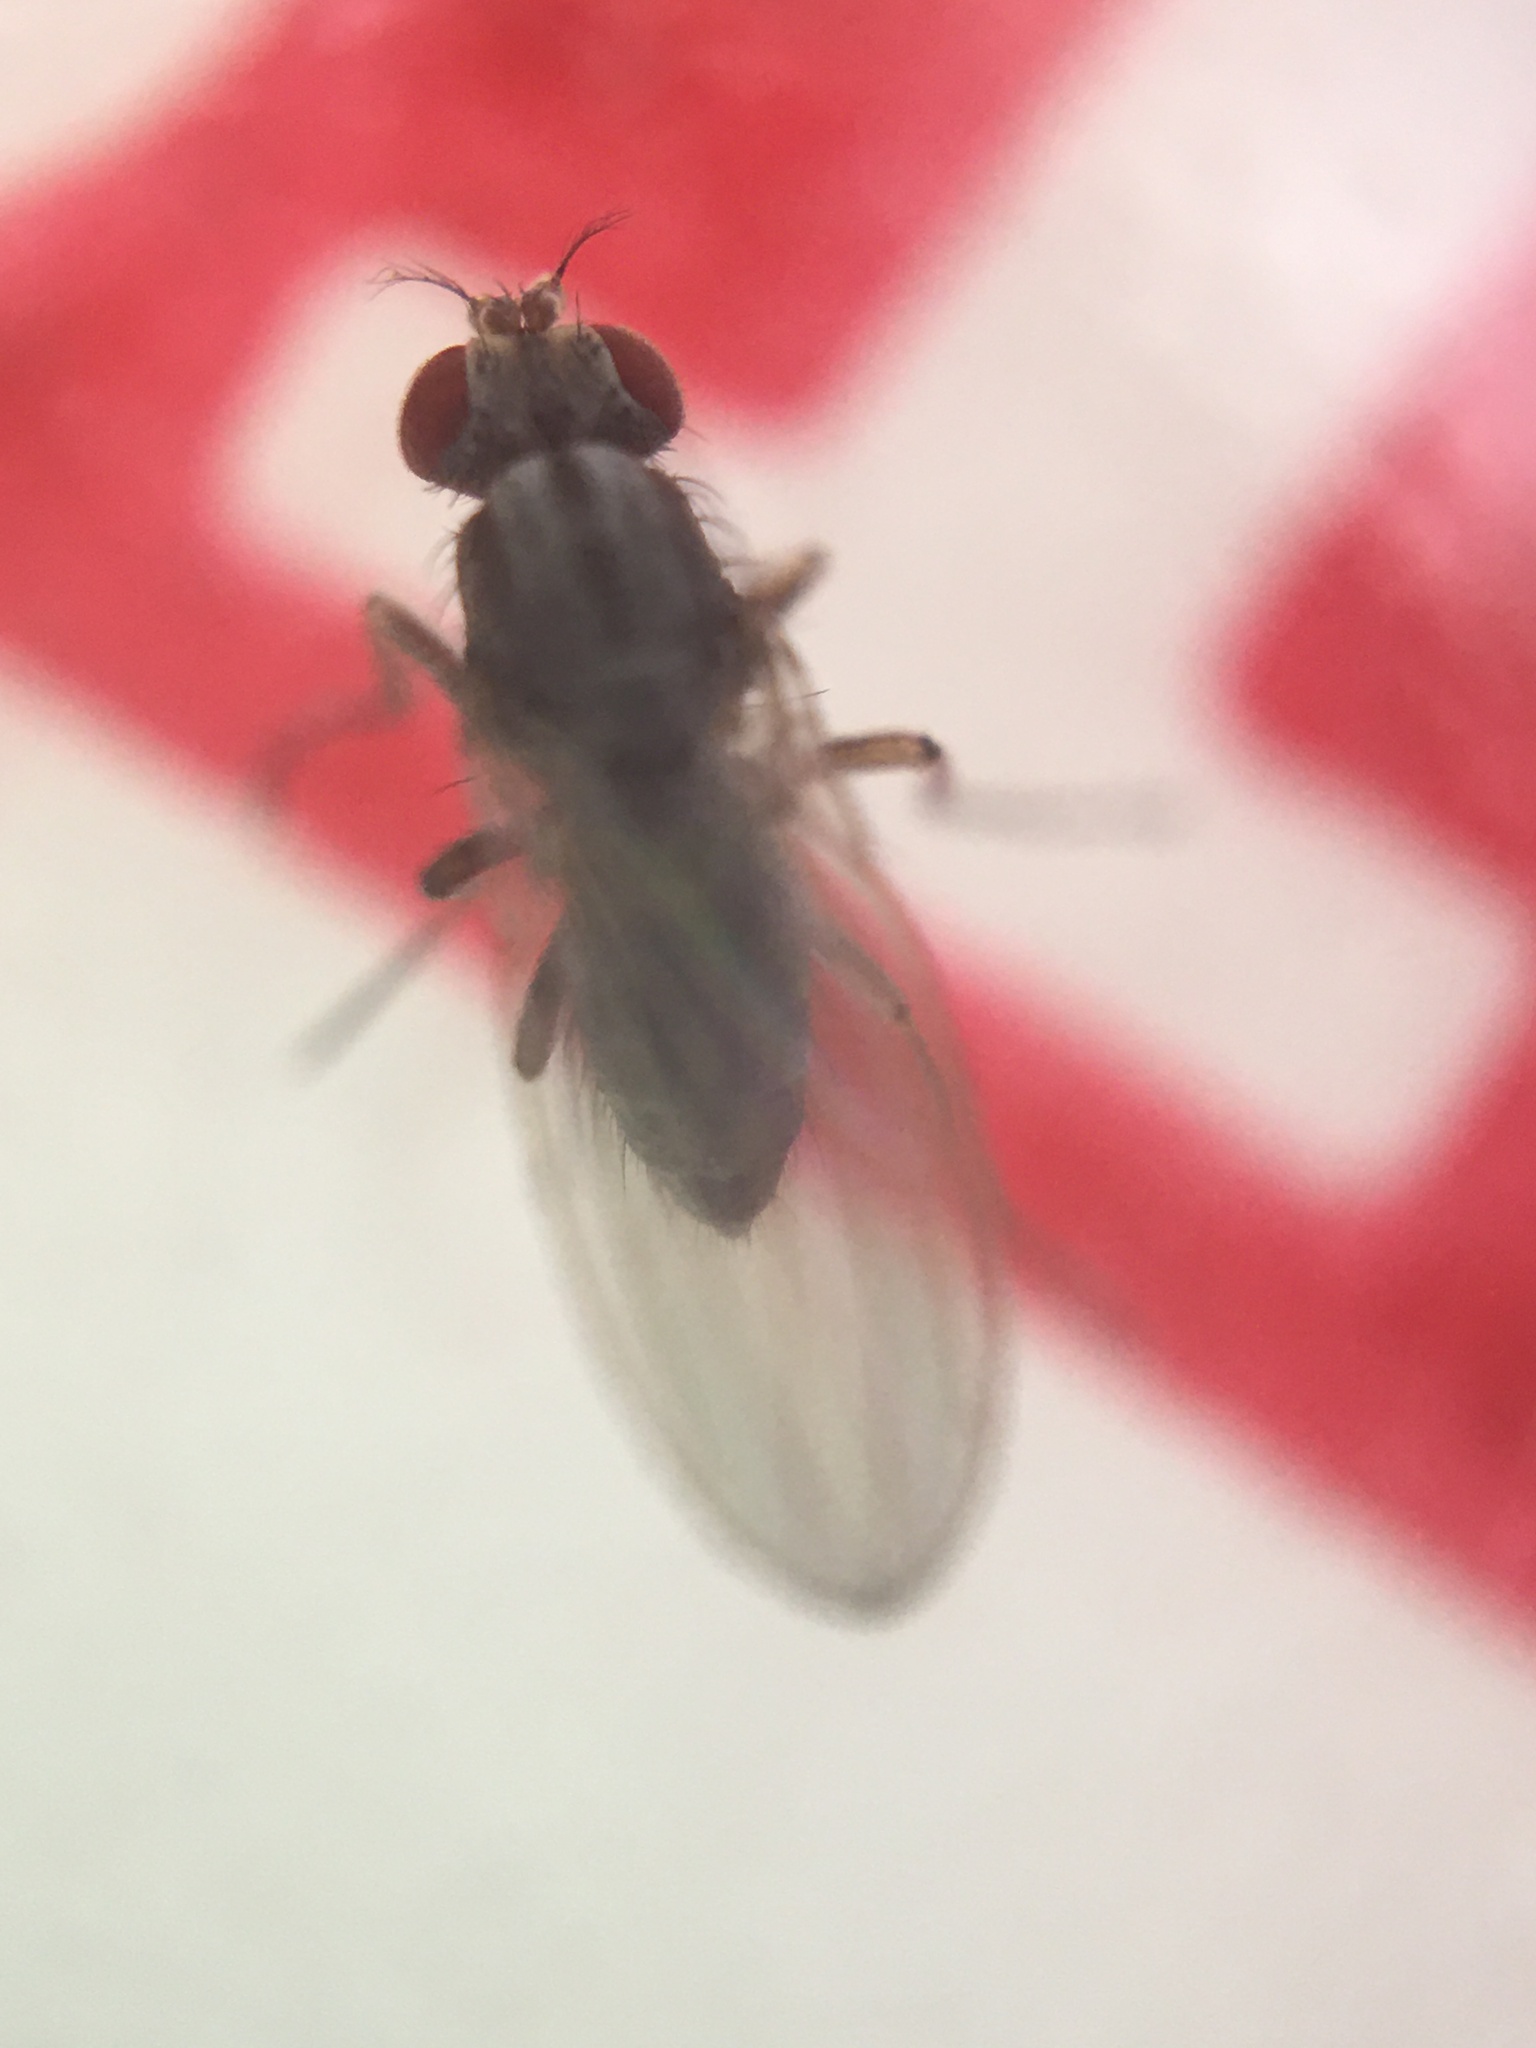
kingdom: Animalia
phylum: Arthropoda
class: Insecta
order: Diptera
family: Drosophilidae
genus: Scaptomyza
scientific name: Scaptomyza pallida
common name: Pomace fly
